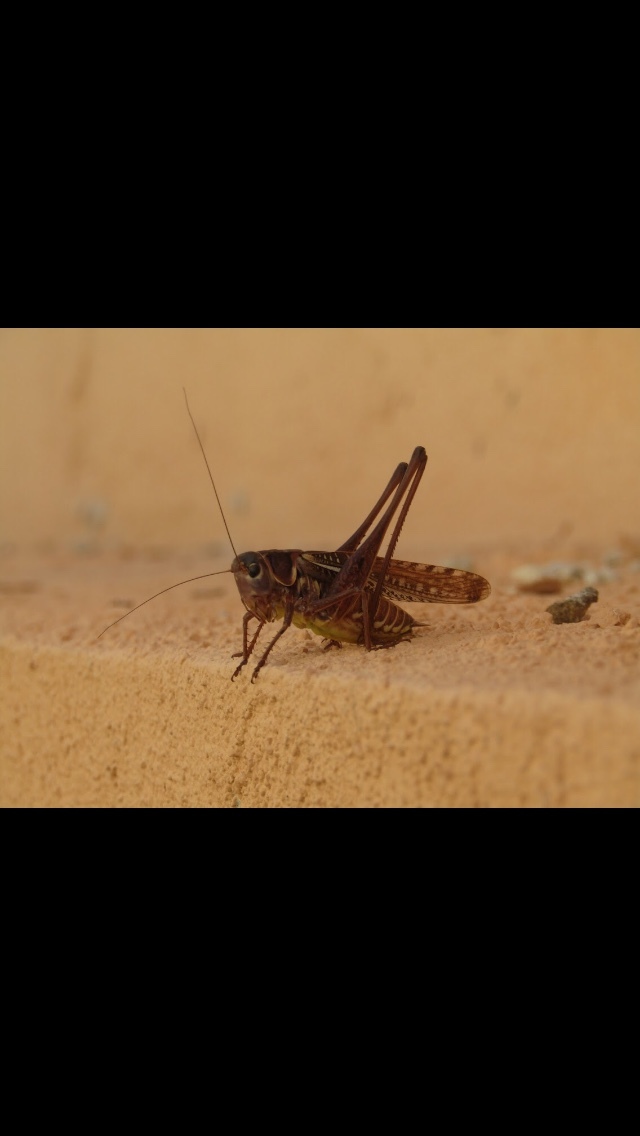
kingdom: Animalia
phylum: Arthropoda
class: Insecta
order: Orthoptera
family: Tettigoniidae
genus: Decticus
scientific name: Decticus albifrons
